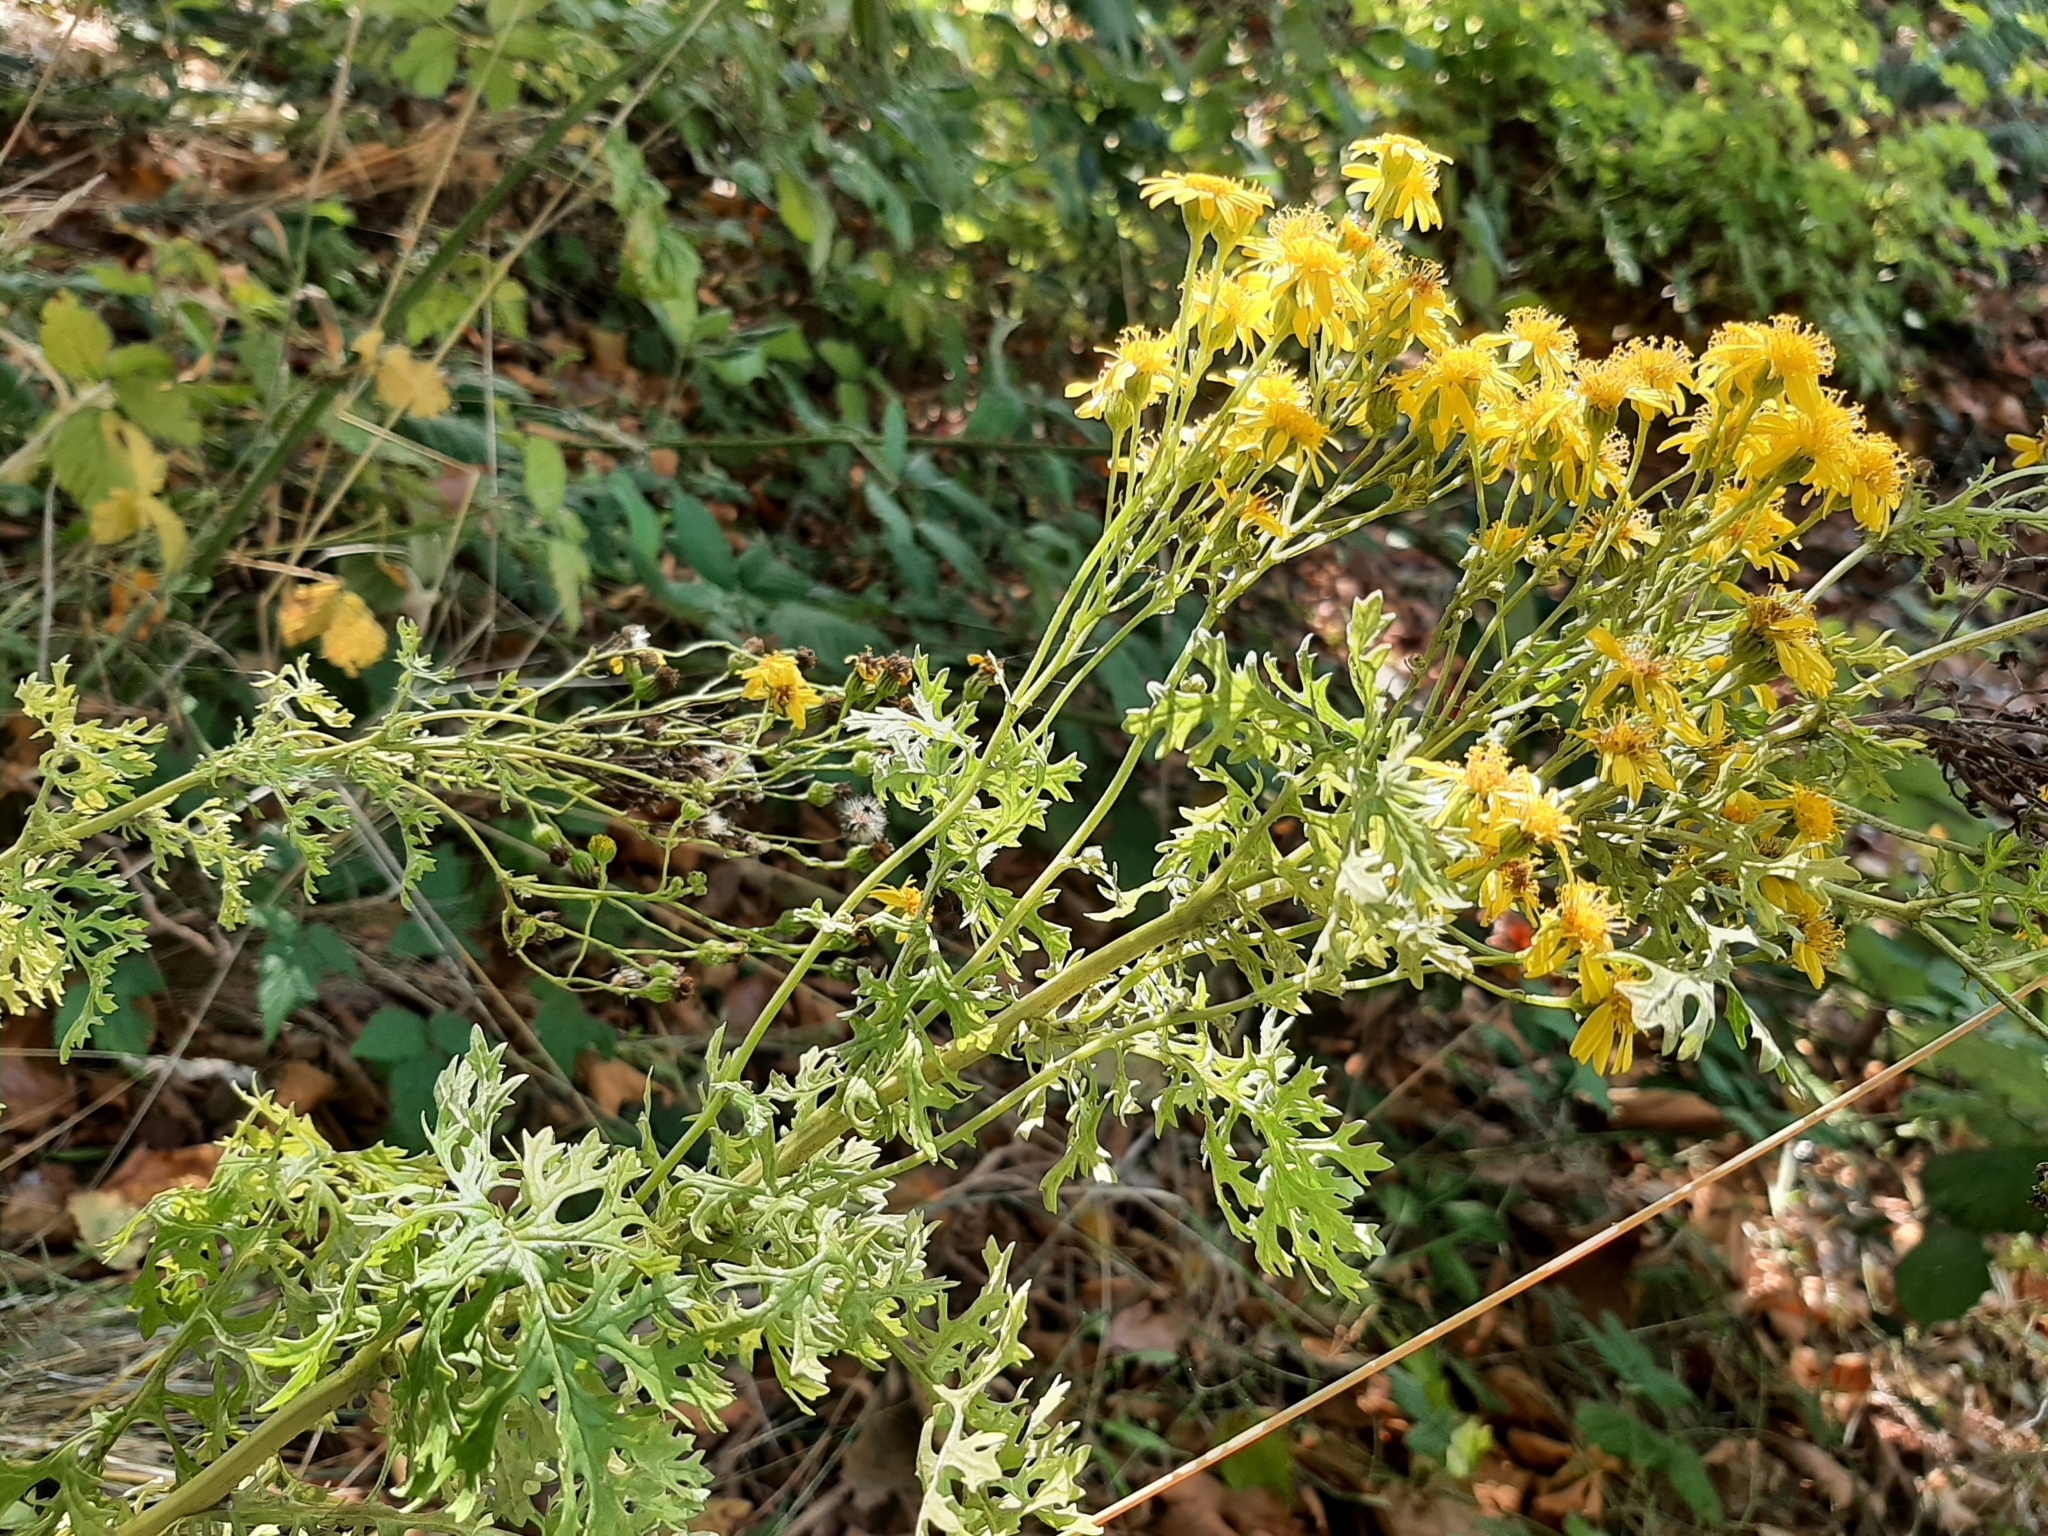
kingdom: Plantae
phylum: Tracheophyta
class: Magnoliopsida
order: Asterales
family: Asteraceae
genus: Jacobaea
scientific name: Jacobaea vulgaris
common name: Stinking willie
